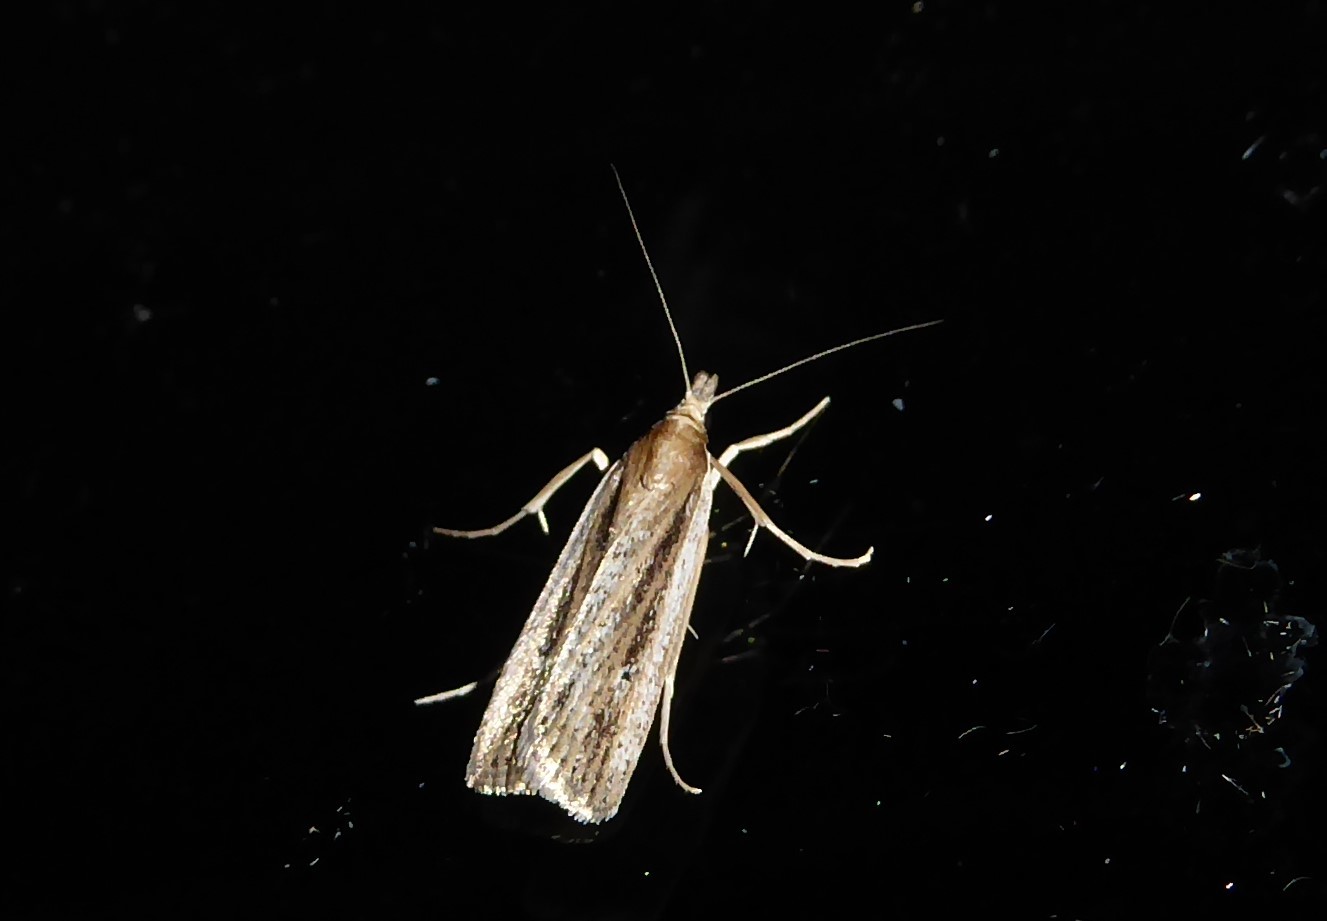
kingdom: Animalia
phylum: Arthropoda
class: Insecta
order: Lepidoptera
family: Crambidae
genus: Eudonia
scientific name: Eudonia sabulosella
